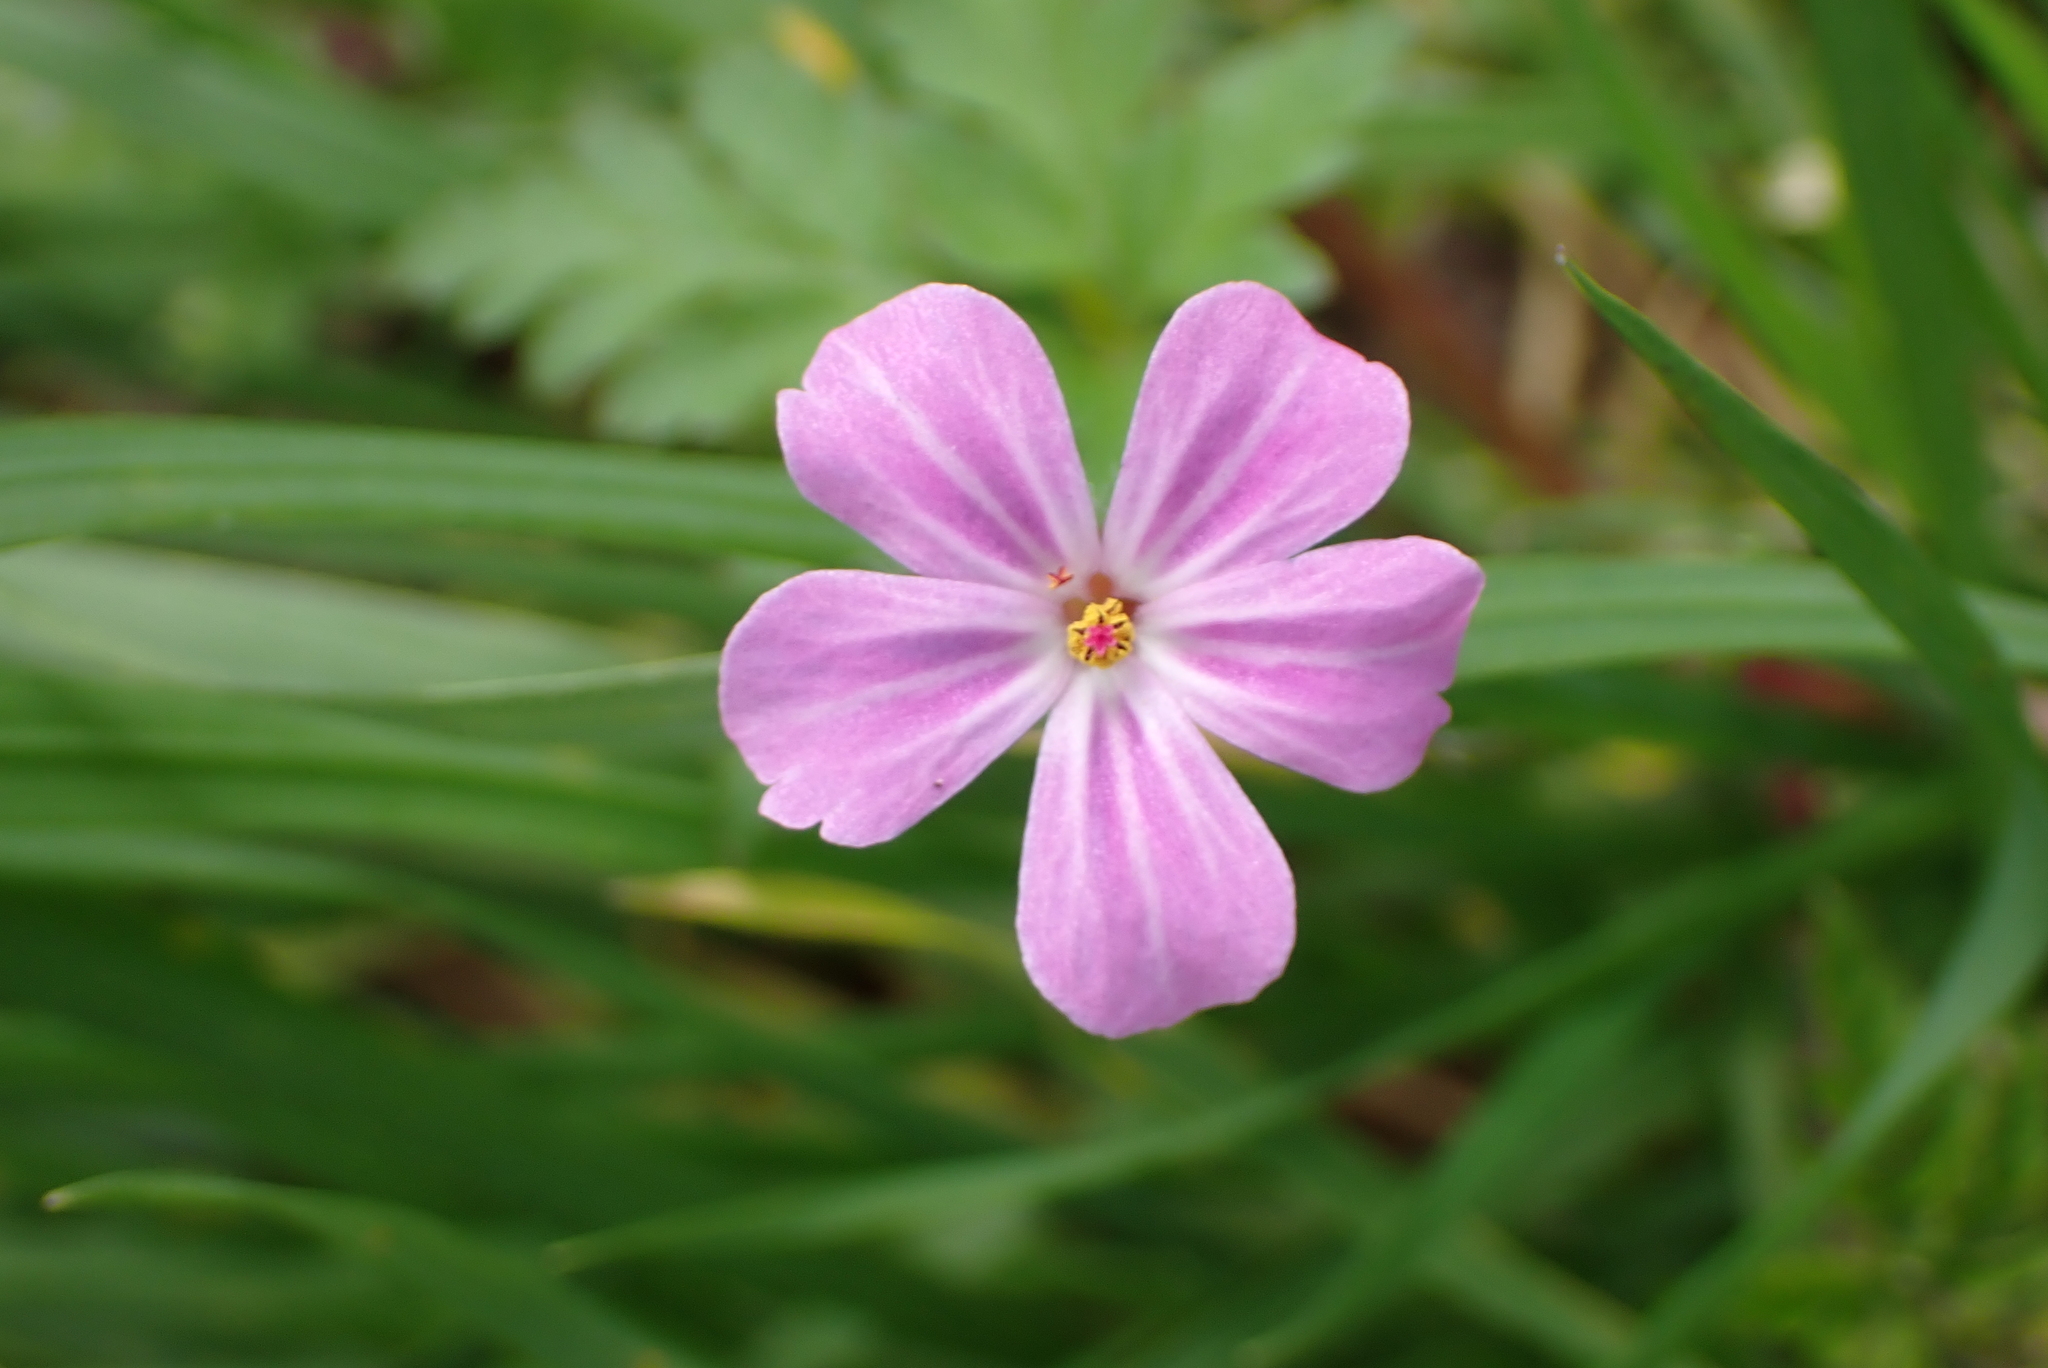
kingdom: Plantae
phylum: Tracheophyta
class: Magnoliopsida
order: Geraniales
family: Geraniaceae
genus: Geranium
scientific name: Geranium robertianum
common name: Herb-robert
